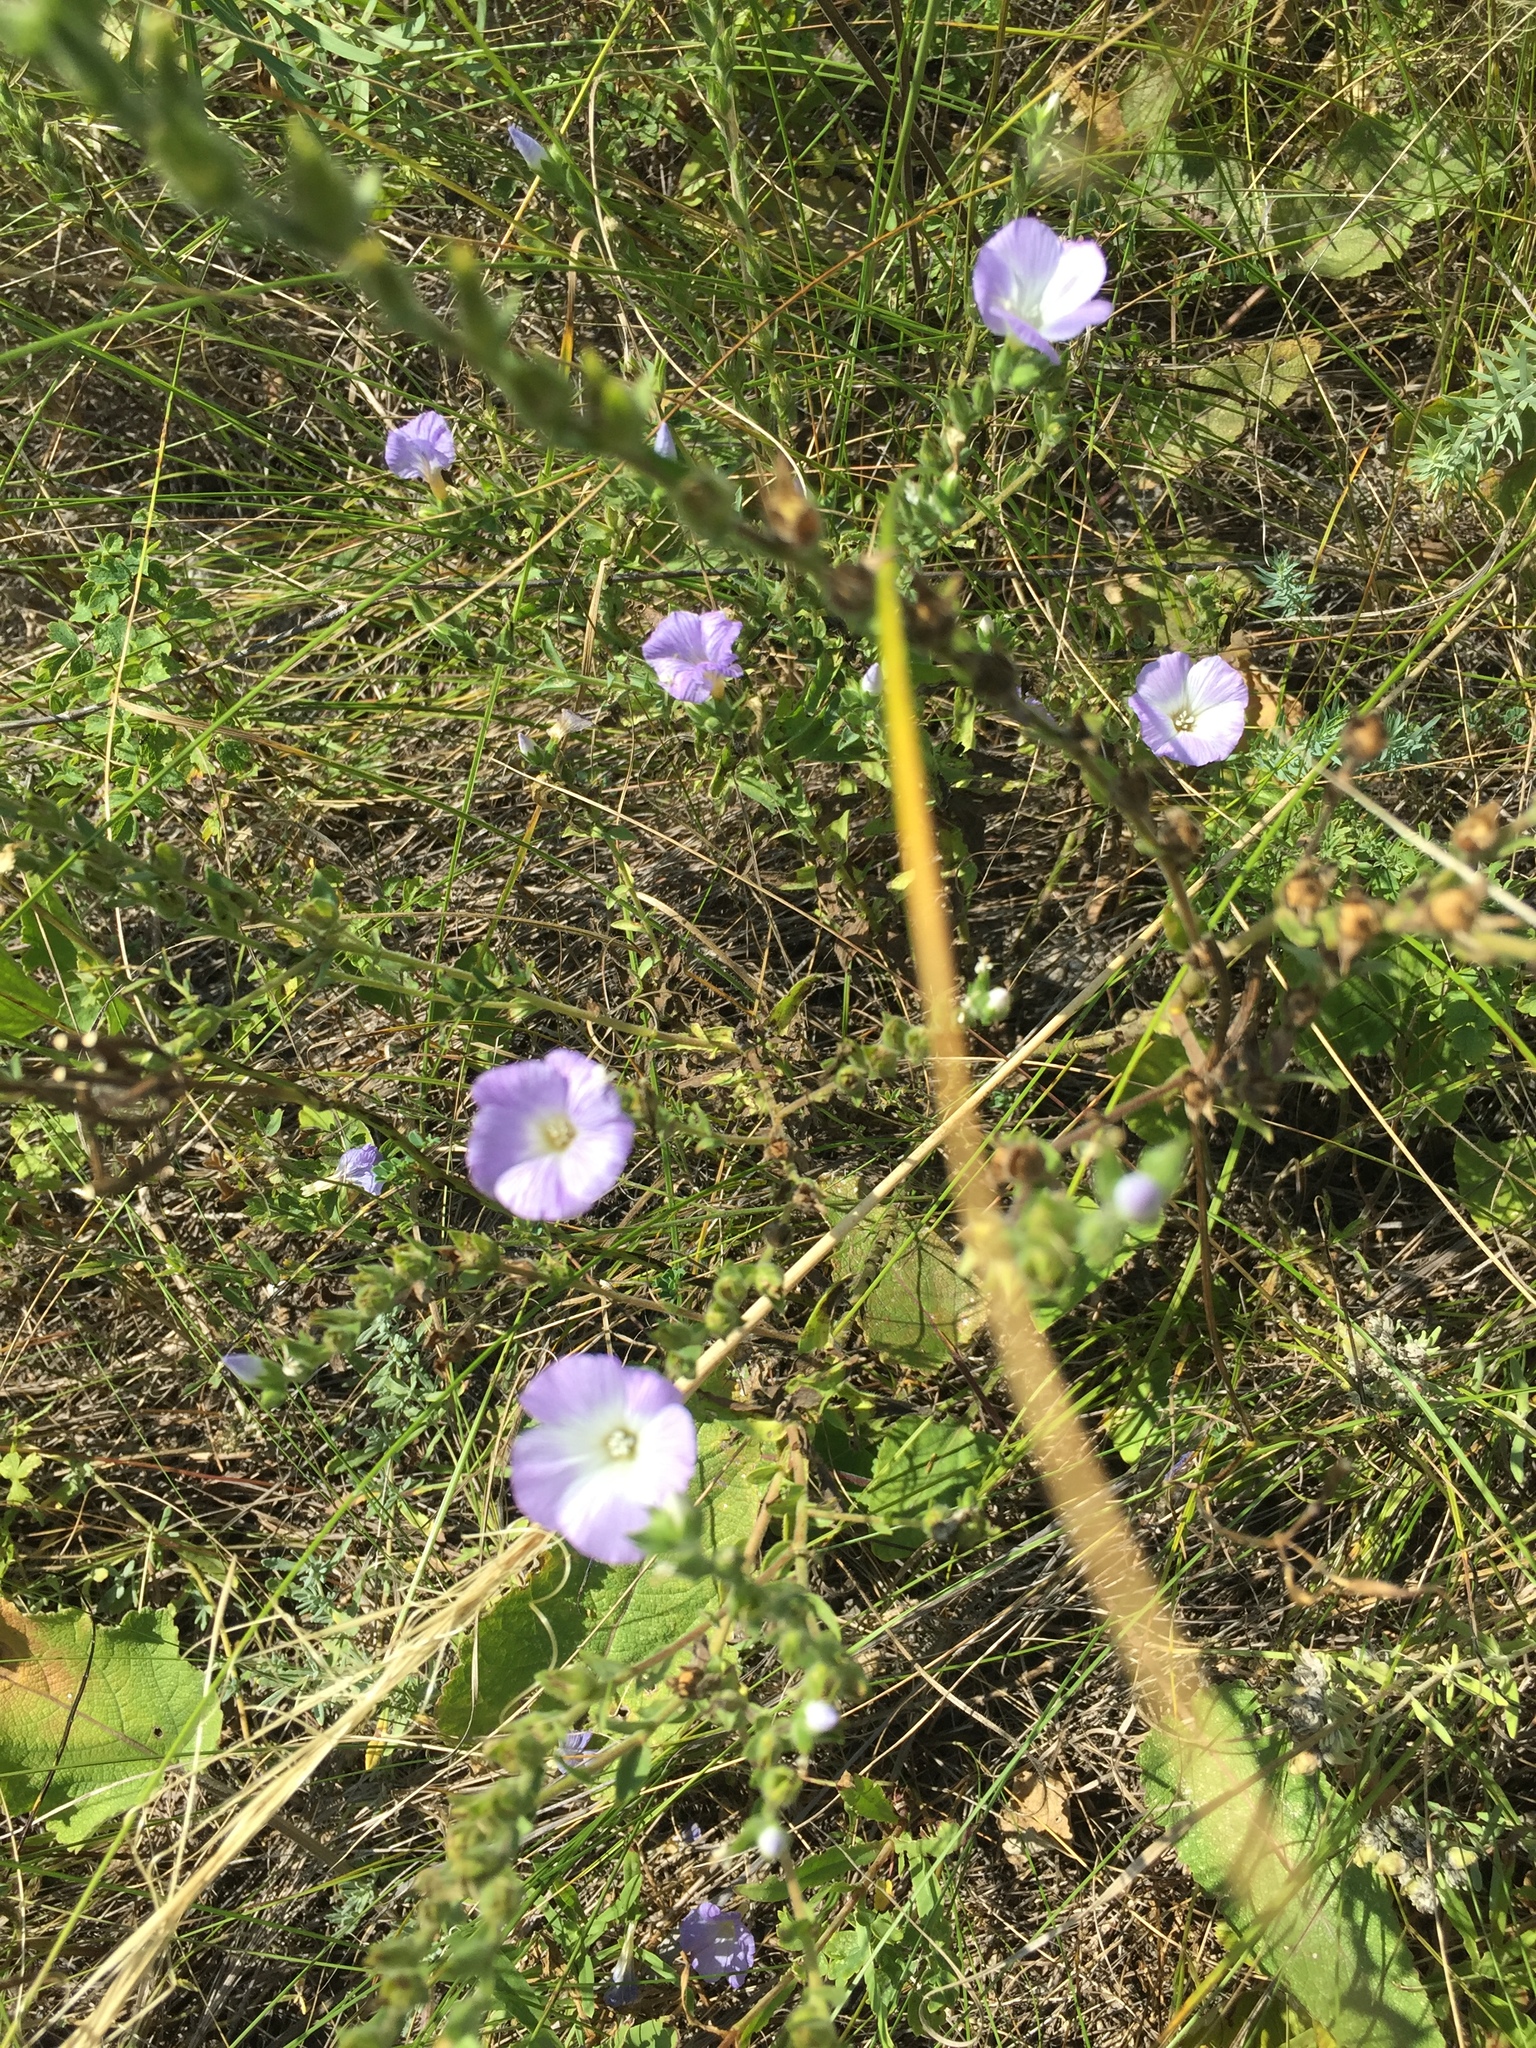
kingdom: Plantae
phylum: Tracheophyta
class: Magnoliopsida
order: Malpighiales
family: Linaceae
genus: Linum
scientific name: Linum hirsutum
